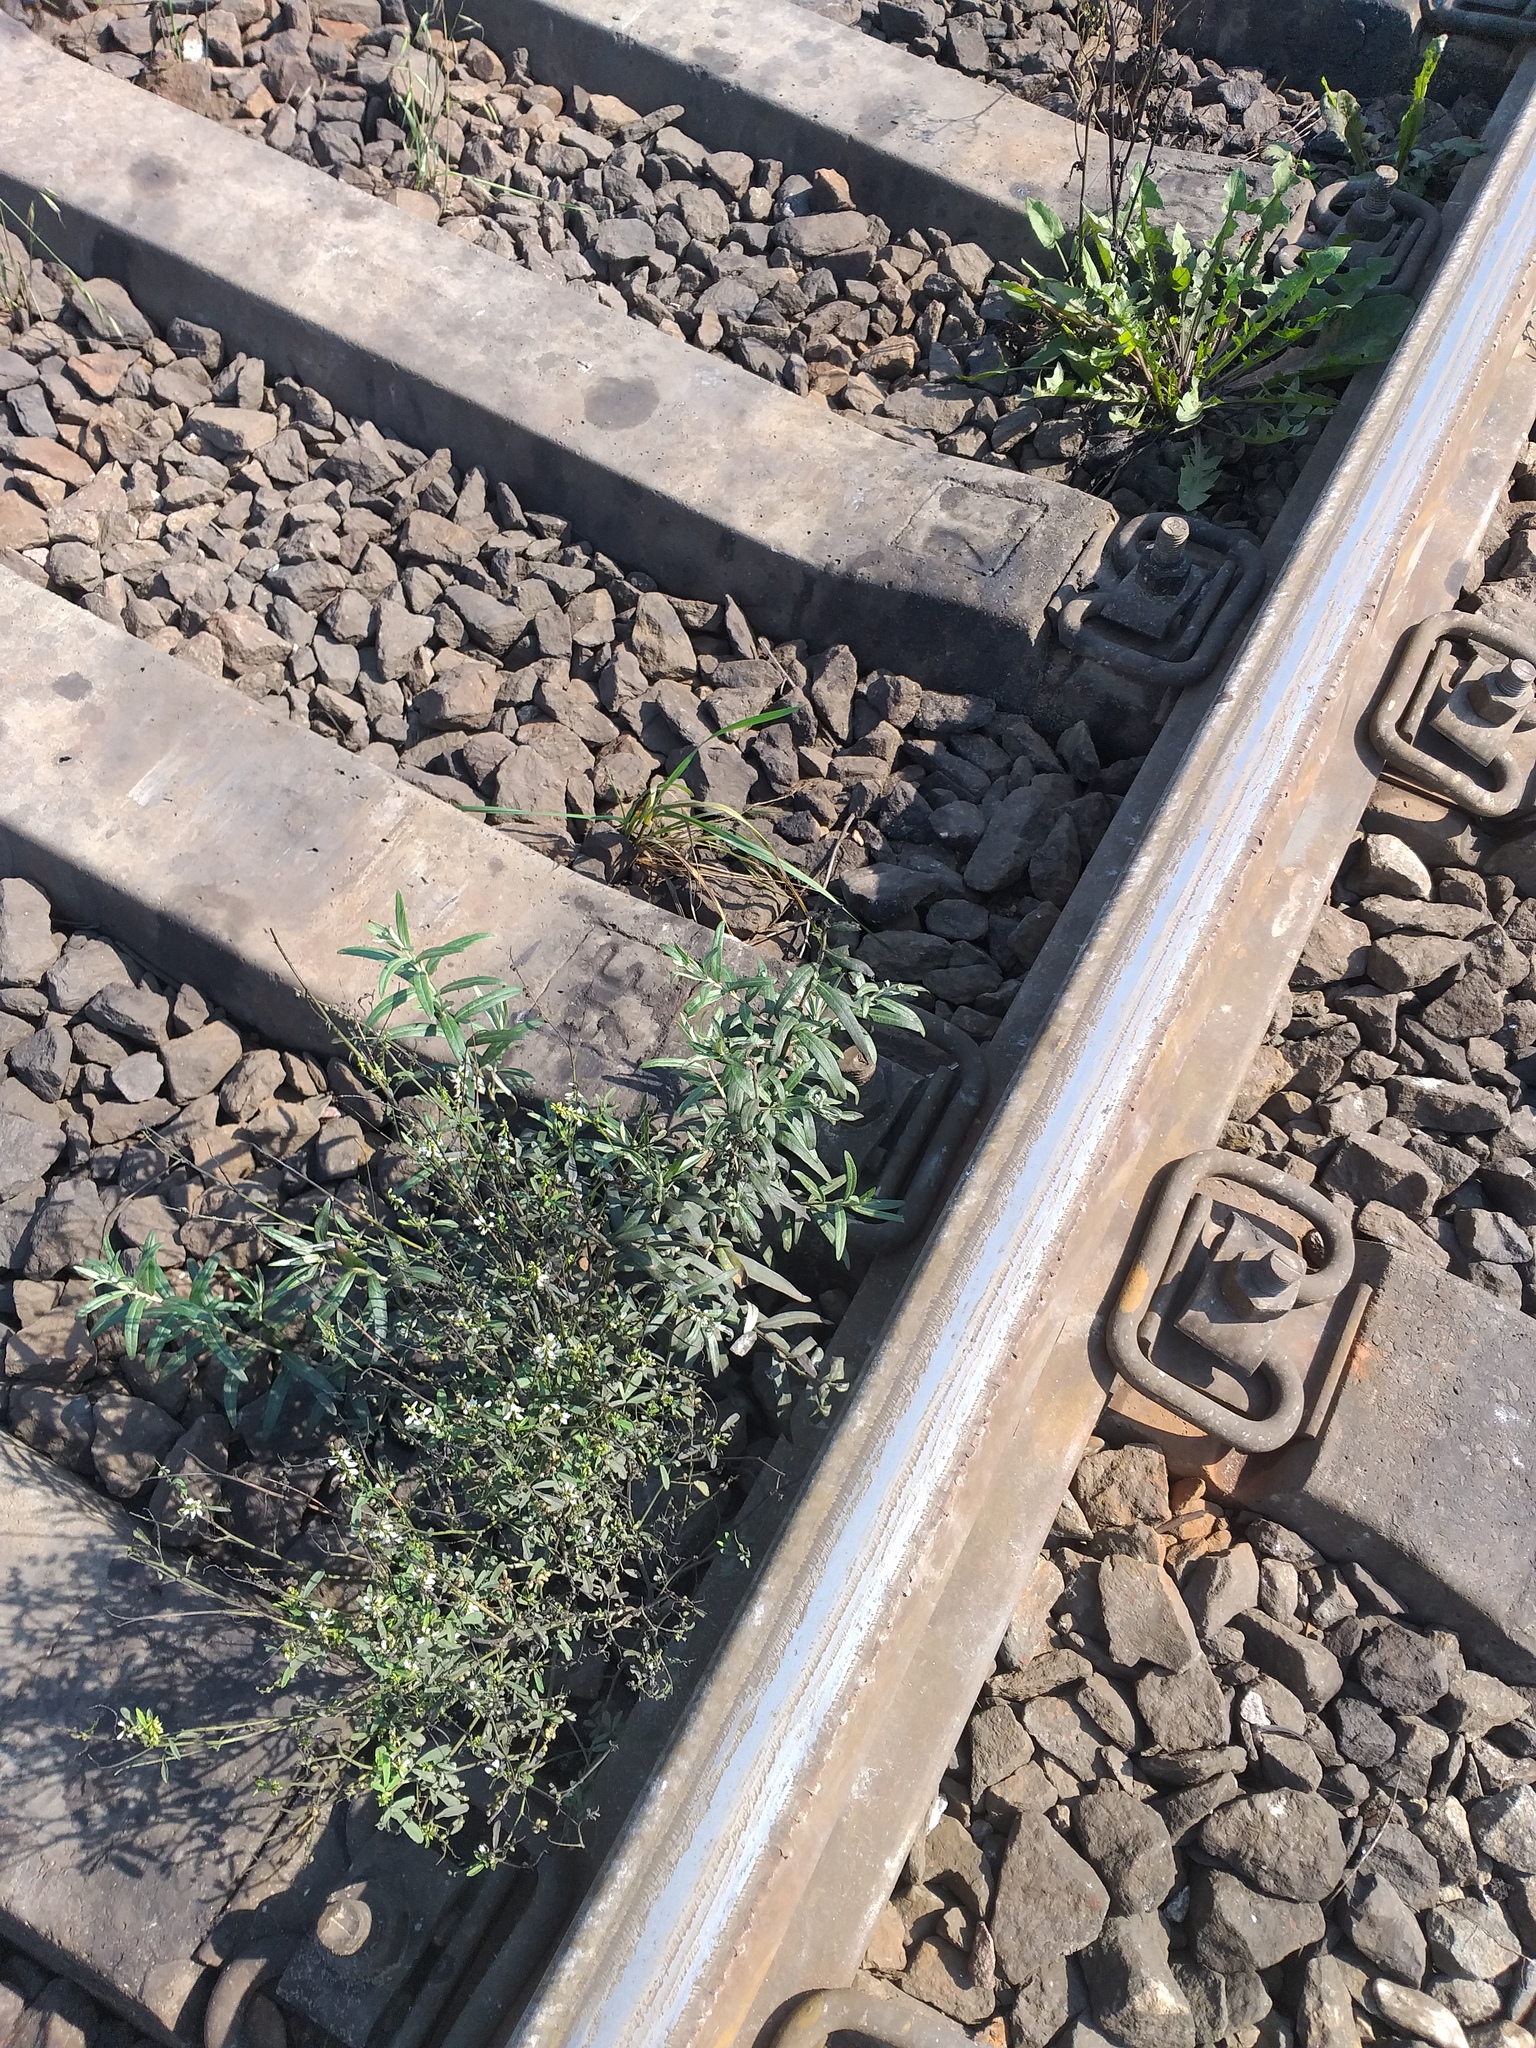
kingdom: Plantae
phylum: Tracheophyta
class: Magnoliopsida
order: Rosales
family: Elaeagnaceae
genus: Hippophae
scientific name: Hippophae rhamnoides
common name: Sea-buckthorn
